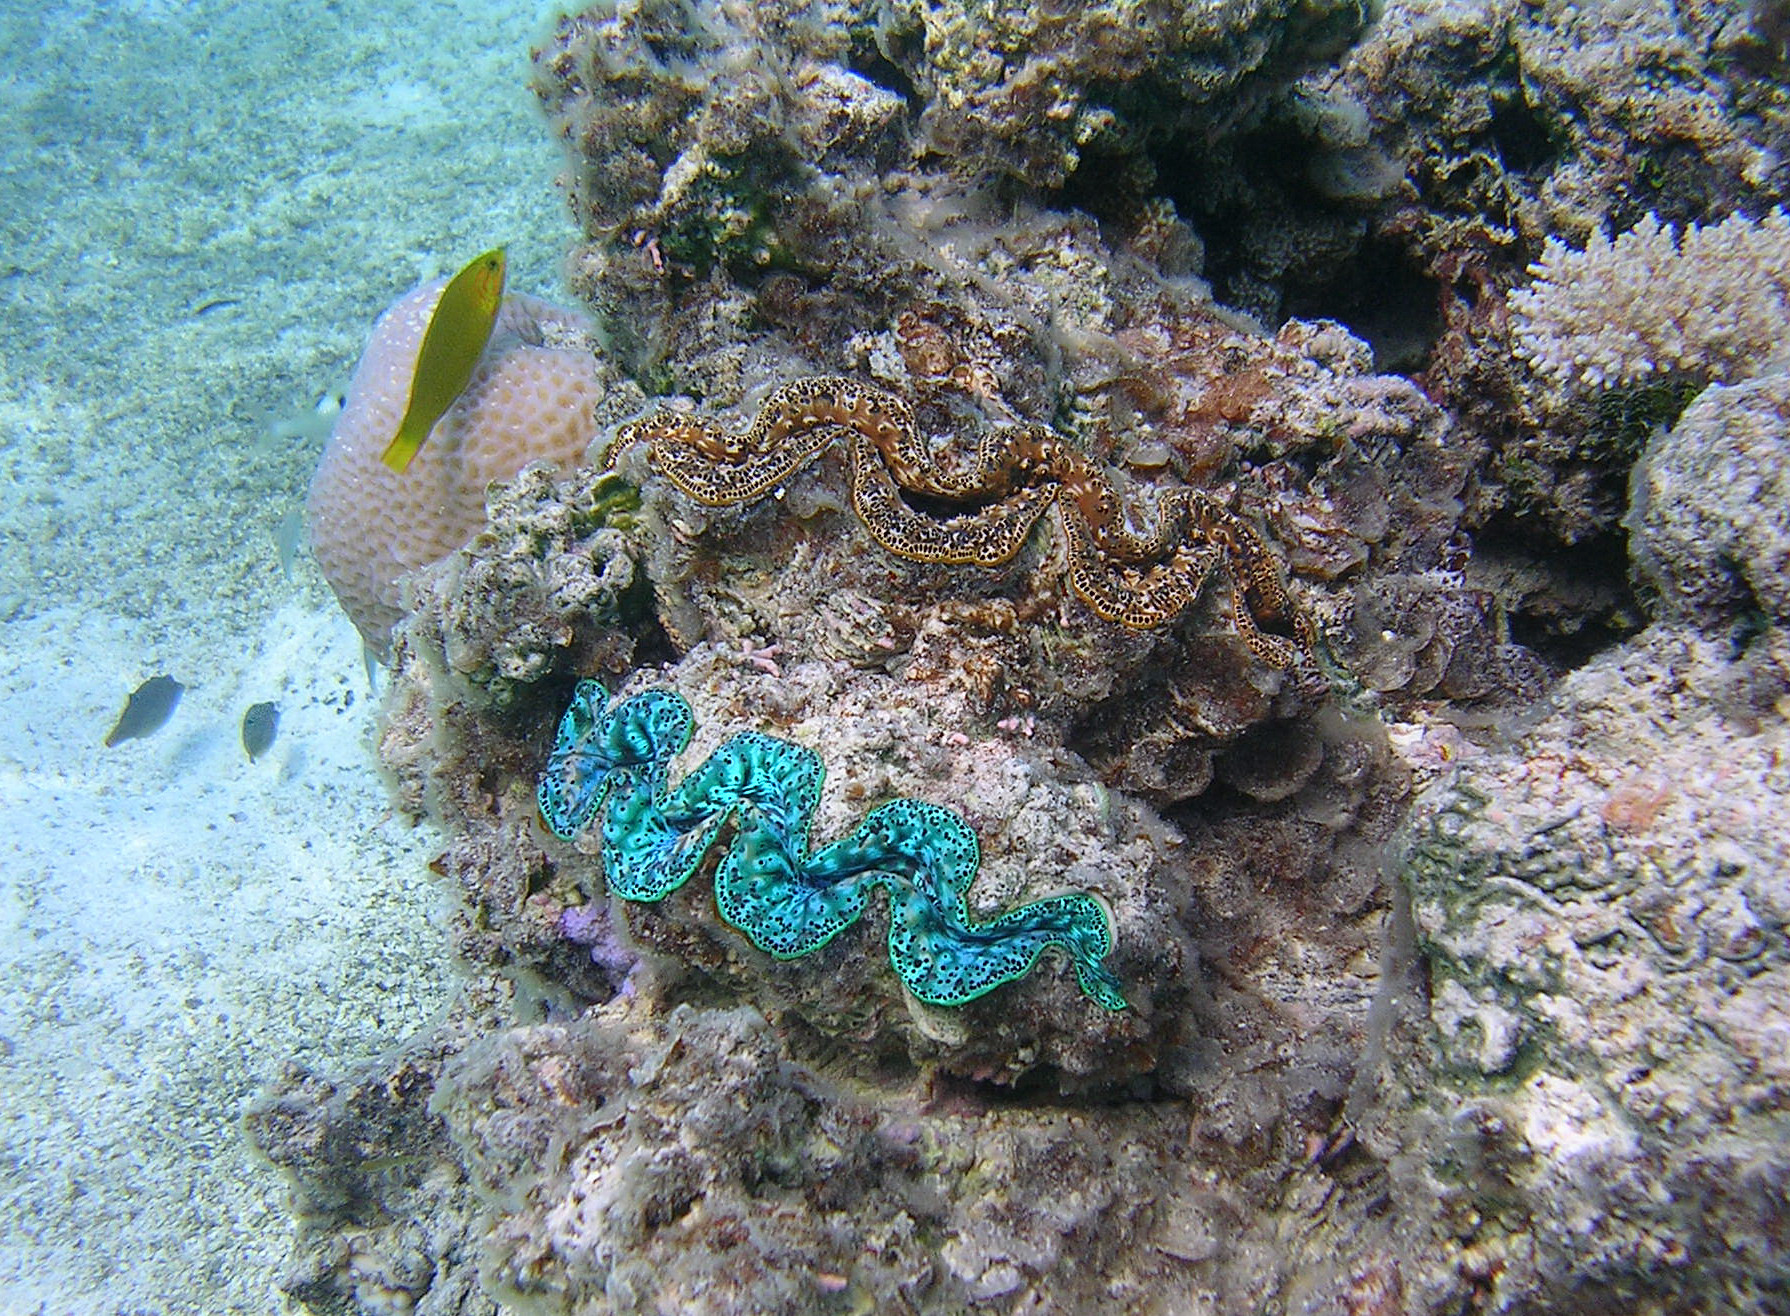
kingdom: Animalia
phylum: Mollusca
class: Bivalvia
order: Cardiida
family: Cardiidae
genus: Tridacna
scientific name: Tridacna maxima
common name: Small giant clam
